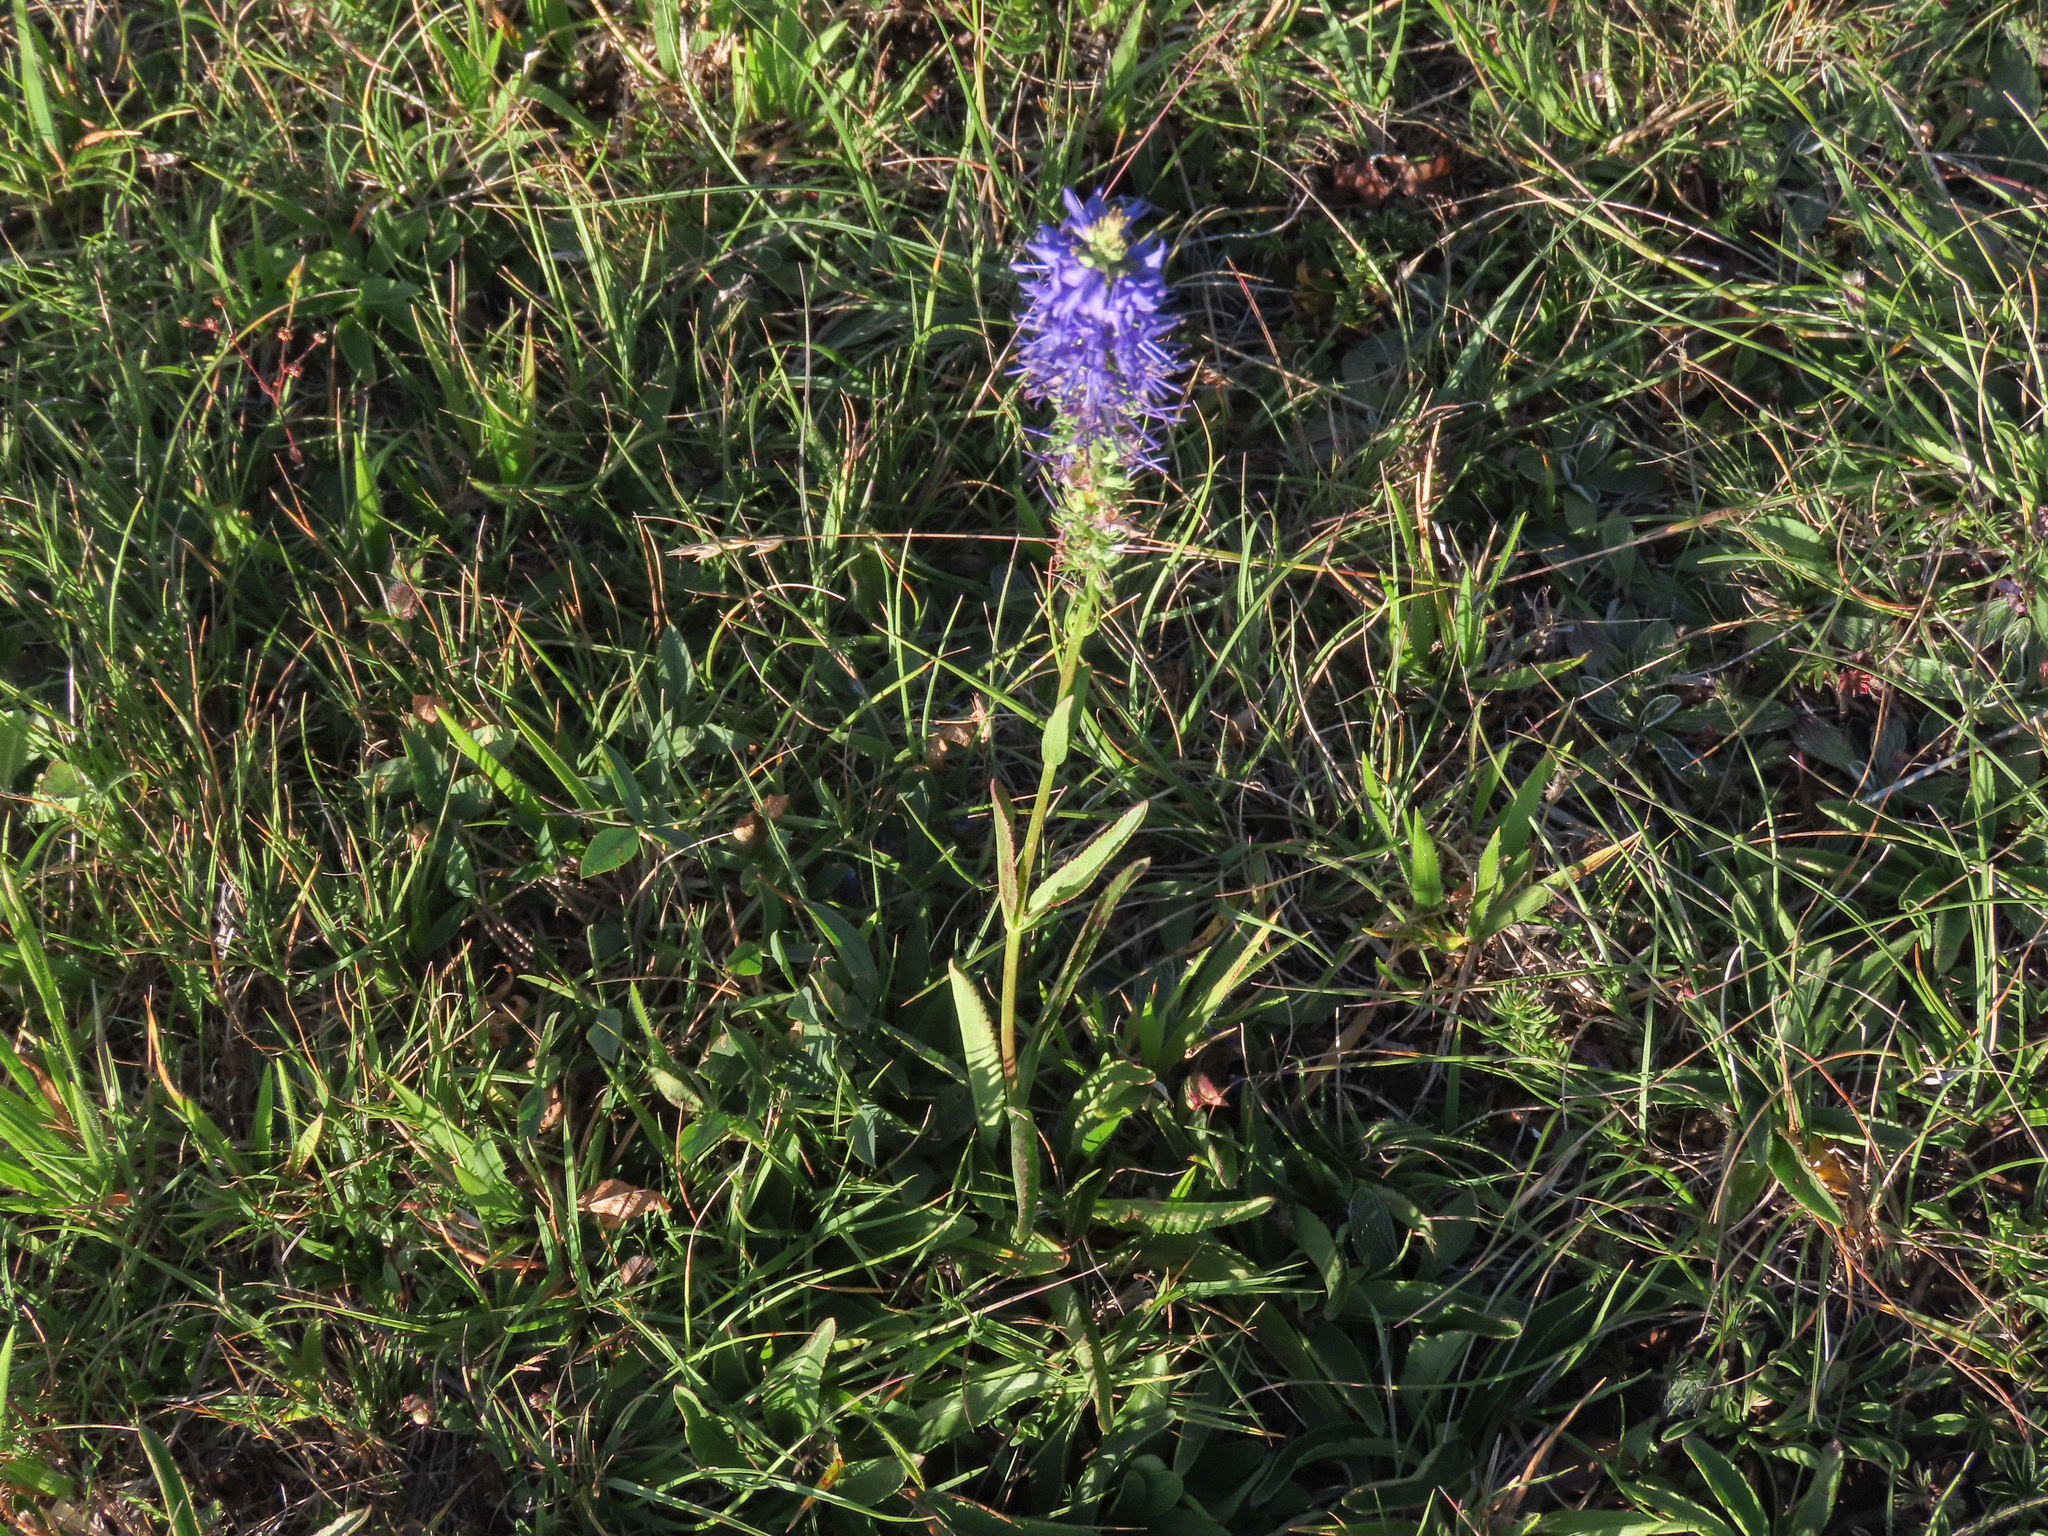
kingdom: Plantae
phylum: Tracheophyta
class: Magnoliopsida
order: Lamiales
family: Plantaginaceae
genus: Veronica
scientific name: Veronica barrelieri
